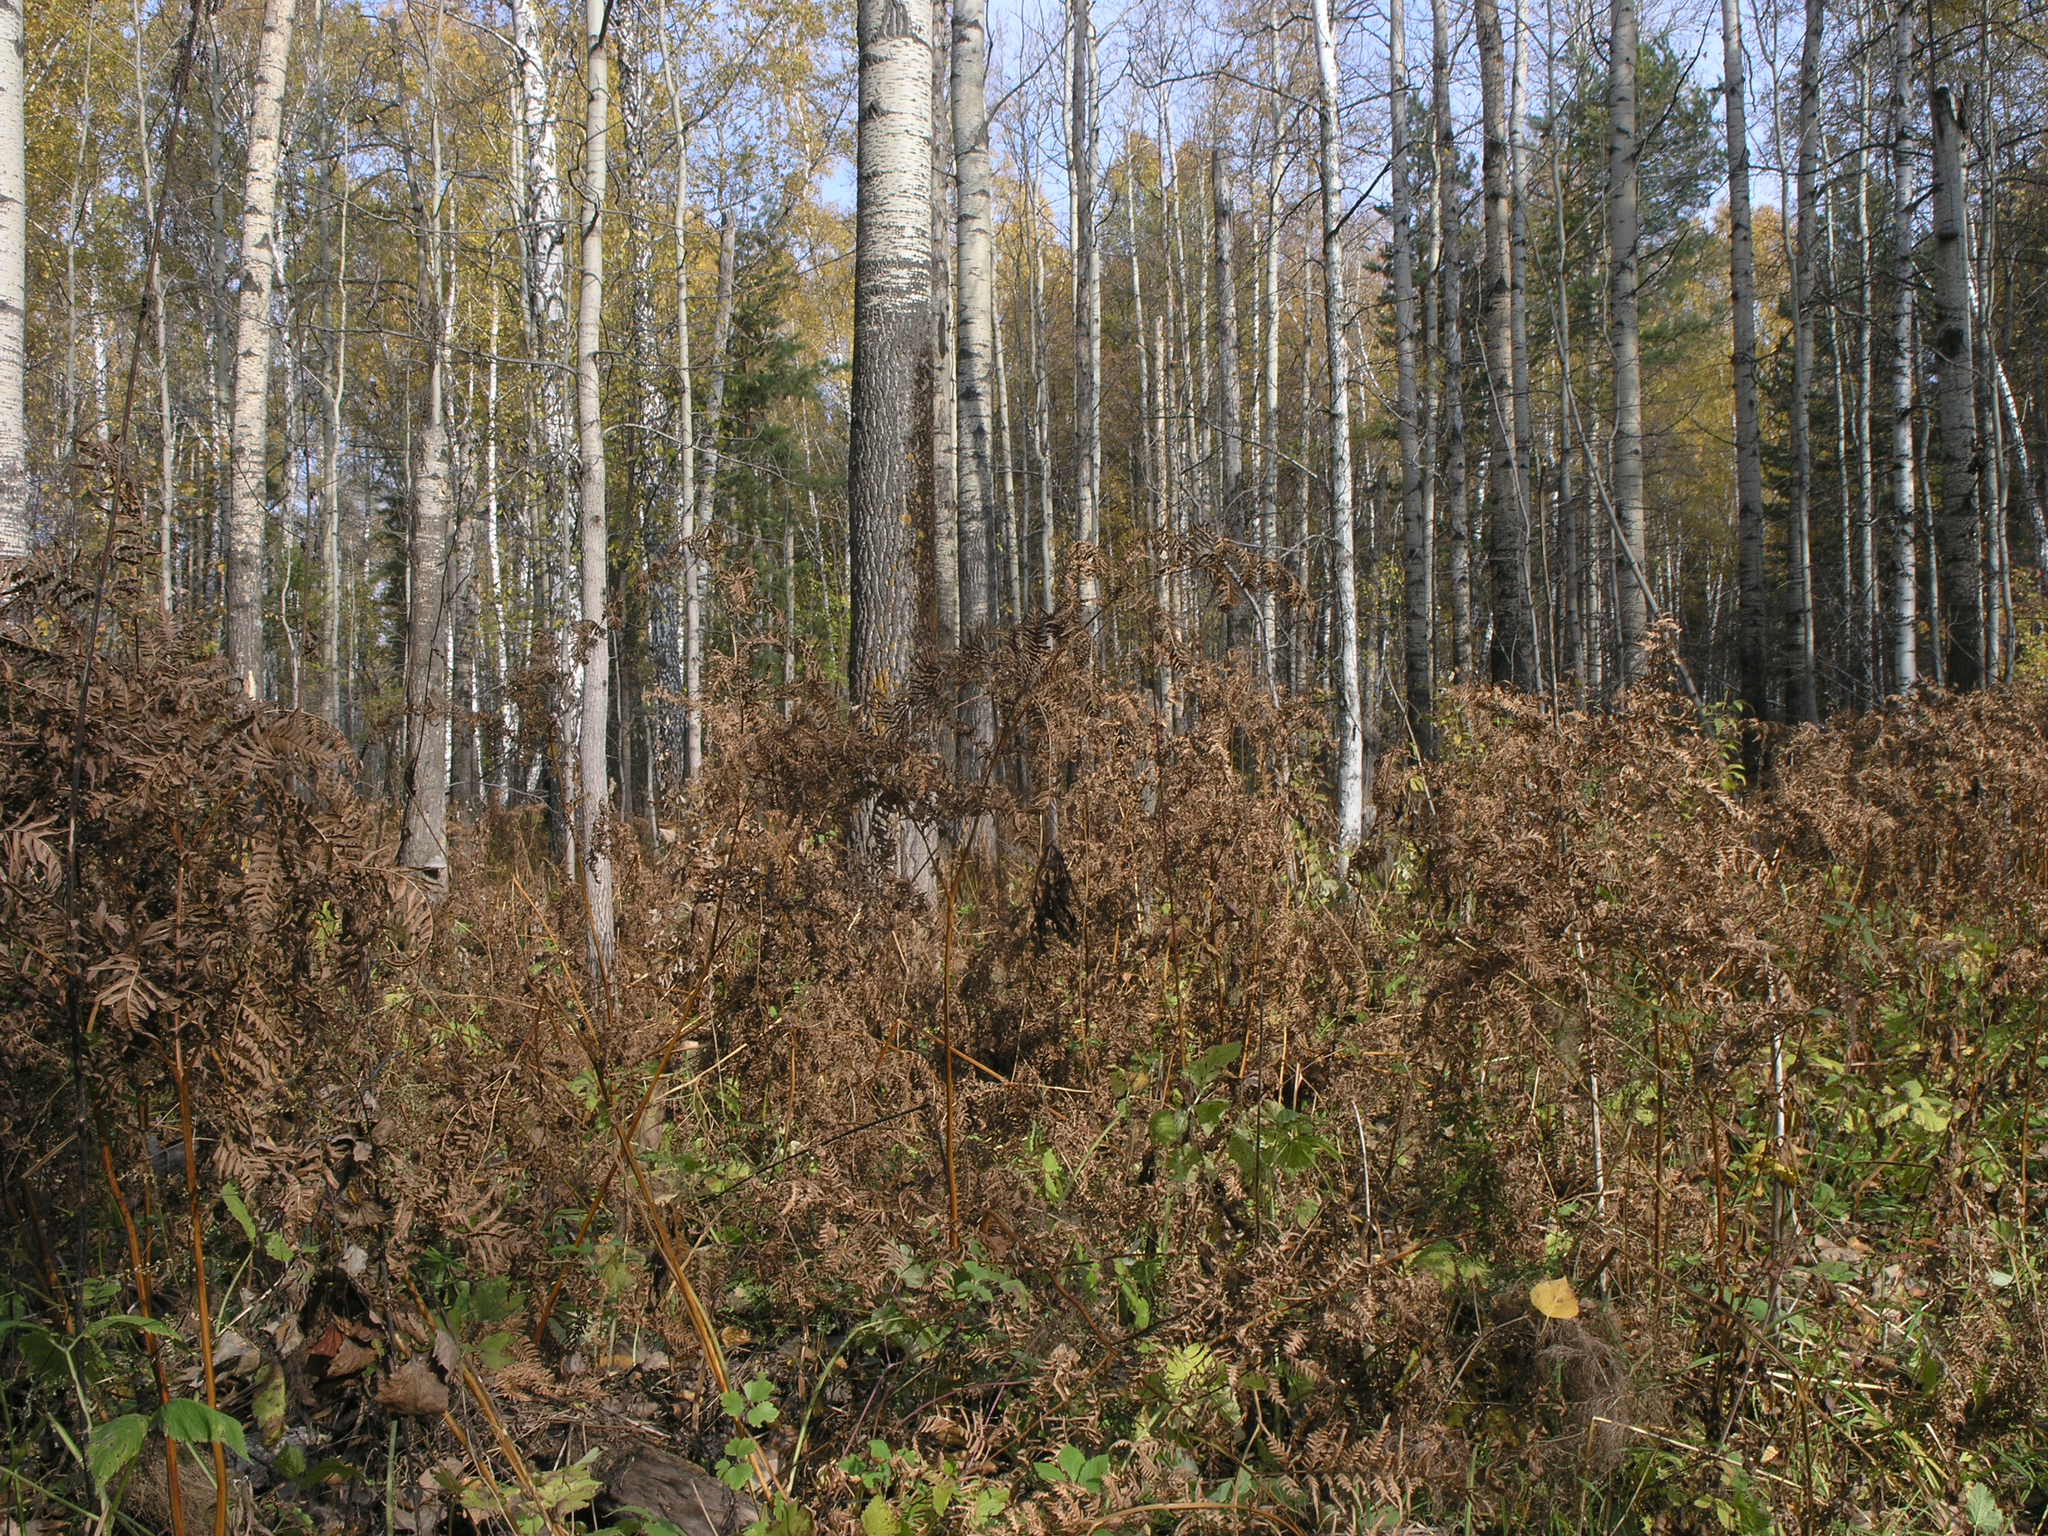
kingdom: Plantae
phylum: Tracheophyta
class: Magnoliopsida
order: Malpighiales
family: Salicaceae
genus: Populus
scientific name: Populus tremula
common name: European aspen
